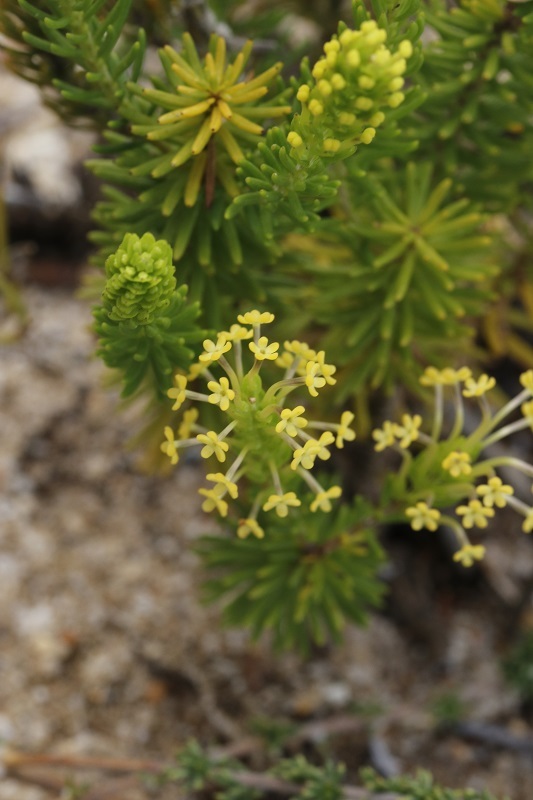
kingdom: Plantae
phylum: Tracheophyta
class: Magnoliopsida
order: Lamiales
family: Scrophulariaceae
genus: Microdon
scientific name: Microdon dubius
